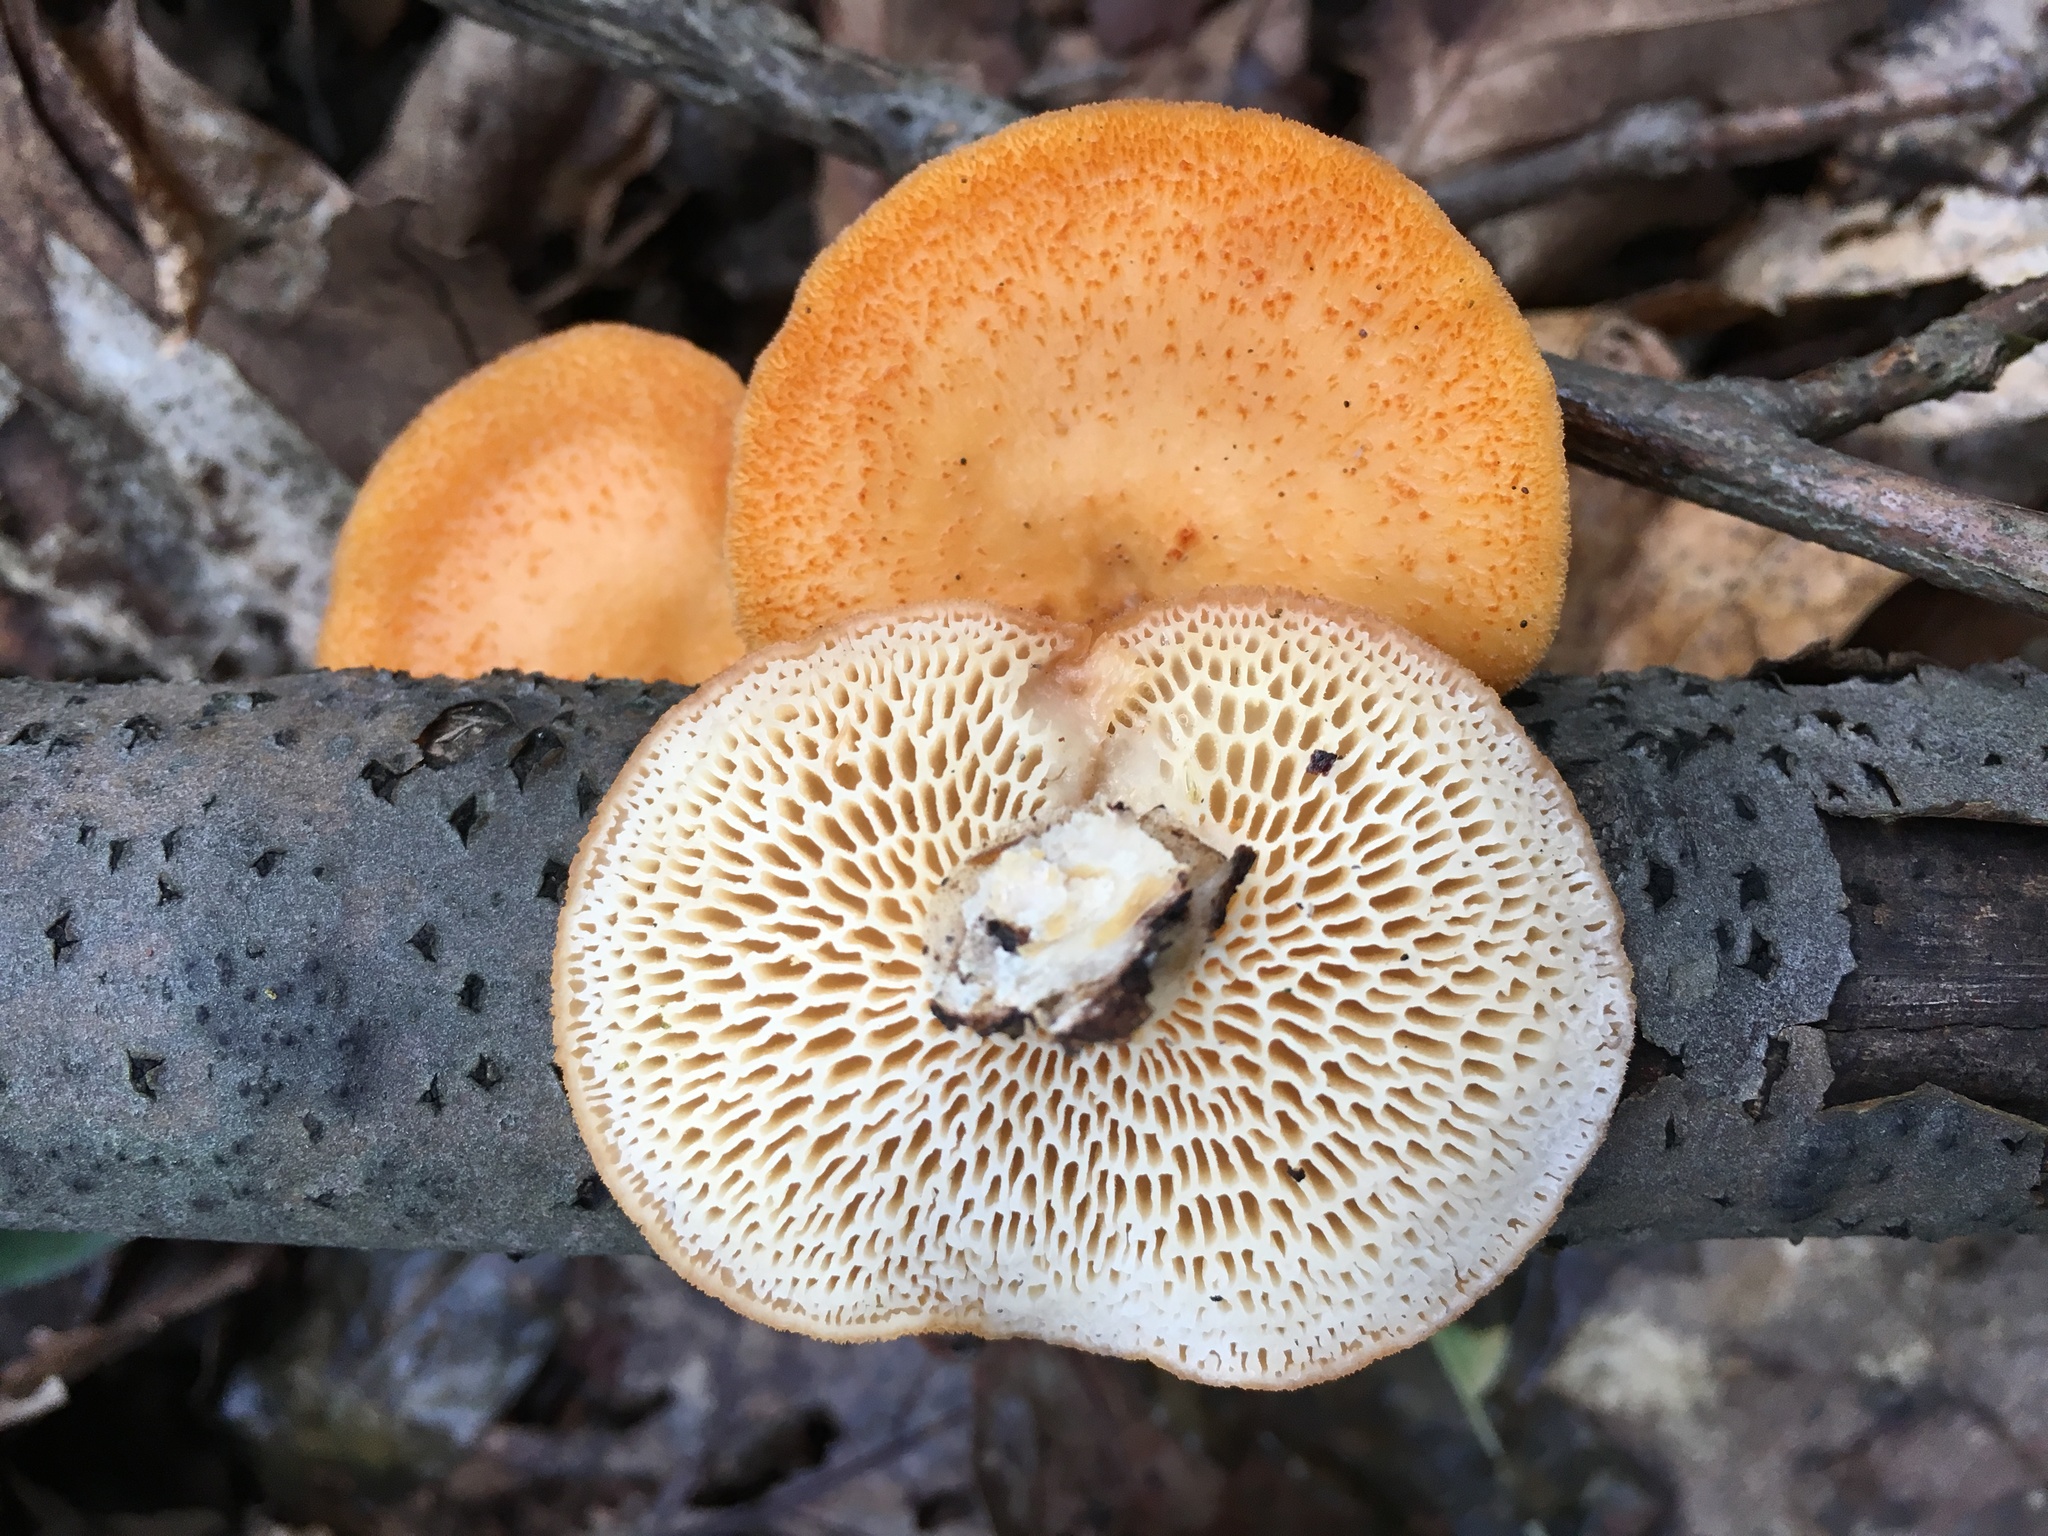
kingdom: Fungi
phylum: Basidiomycota
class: Agaricomycetes
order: Polyporales
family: Polyporaceae
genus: Neofavolus
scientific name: Neofavolus alveolaris
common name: Hexagonal-pored polypore
